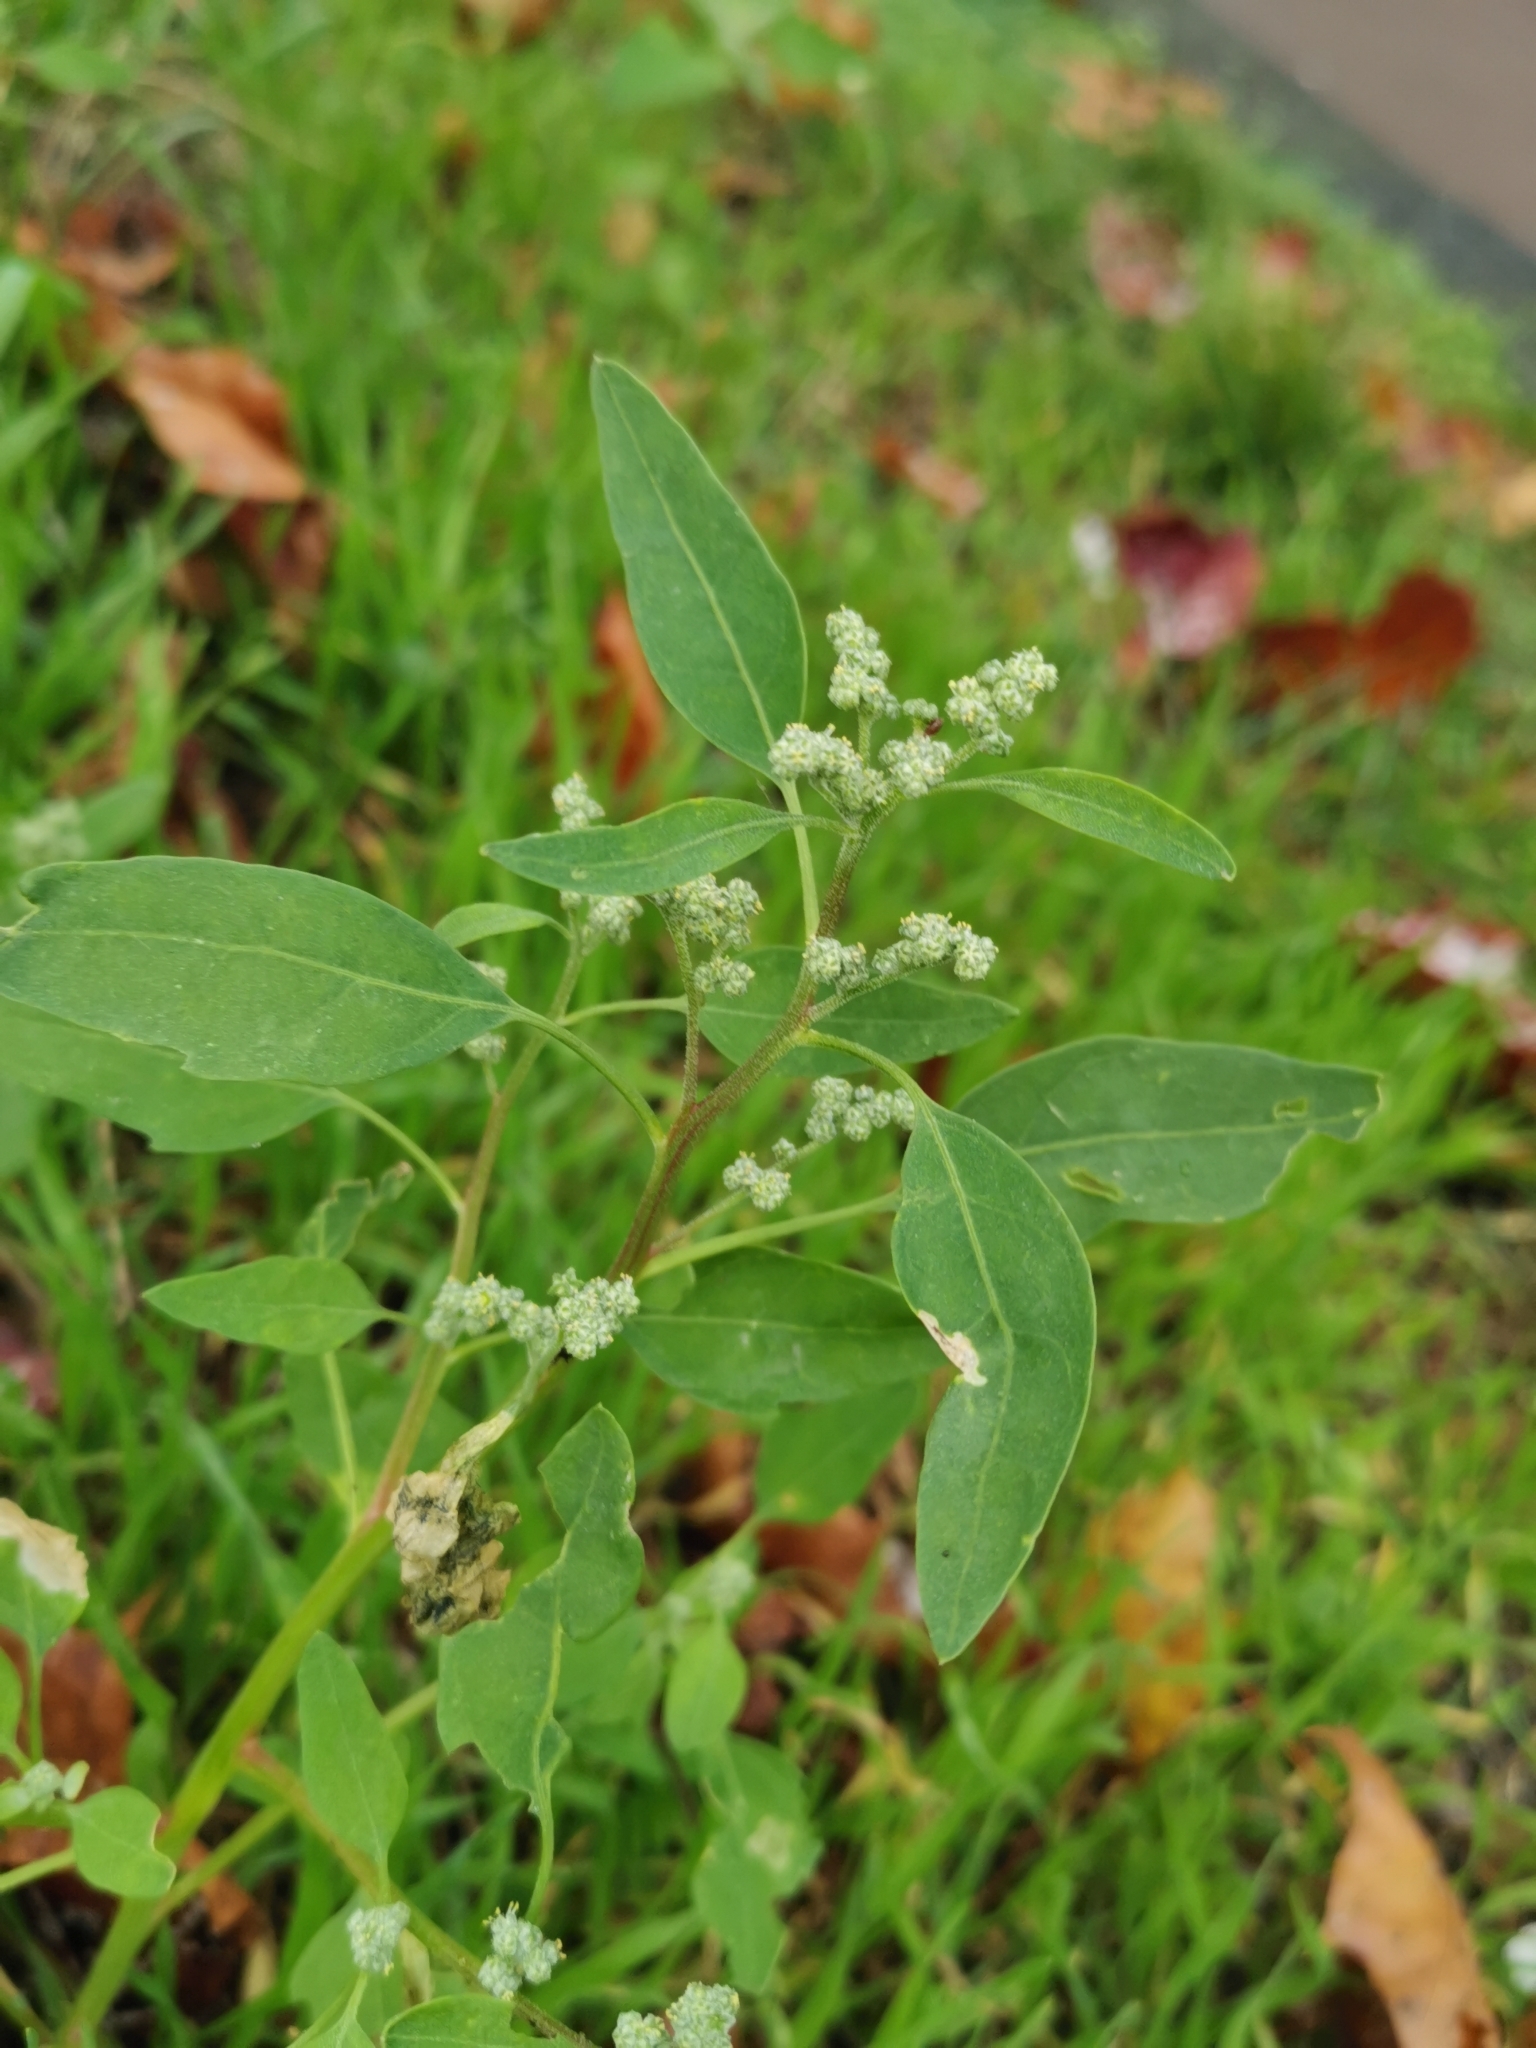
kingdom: Plantae
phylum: Tracheophyta
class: Magnoliopsida
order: Caryophyllales
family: Amaranthaceae
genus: Chenopodium
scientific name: Chenopodium album
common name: Fat-hen
